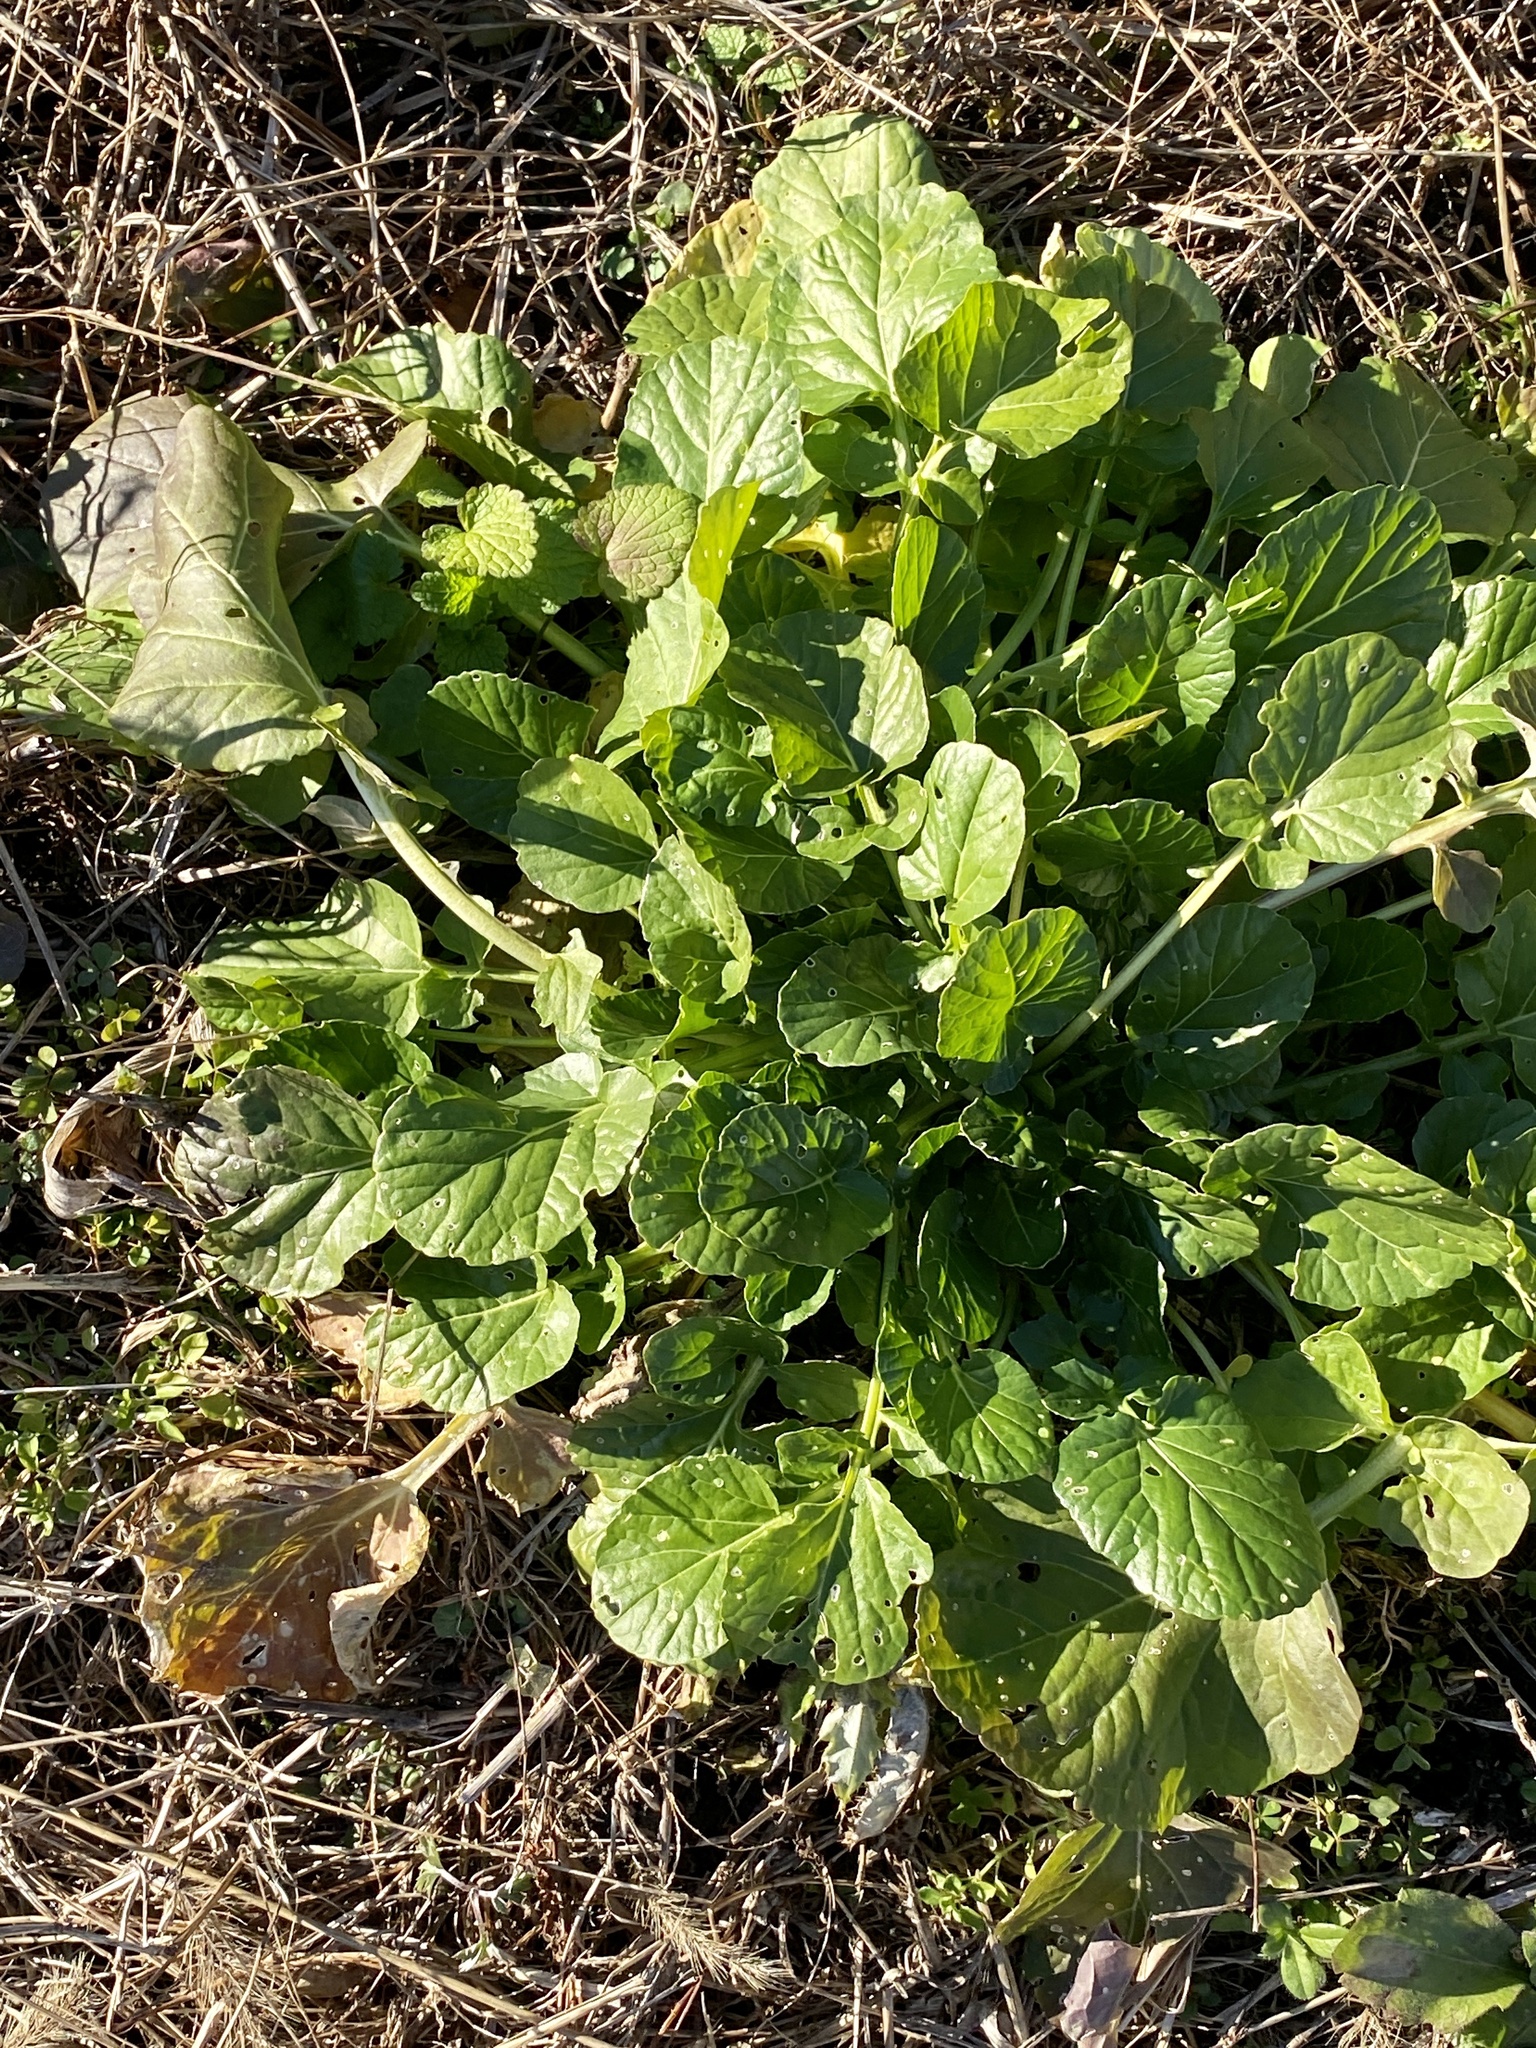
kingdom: Plantae
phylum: Tracheophyta
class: Magnoliopsida
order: Brassicales
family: Brassicaceae
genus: Barbarea
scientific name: Barbarea vulgaris
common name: Cressy-greens
